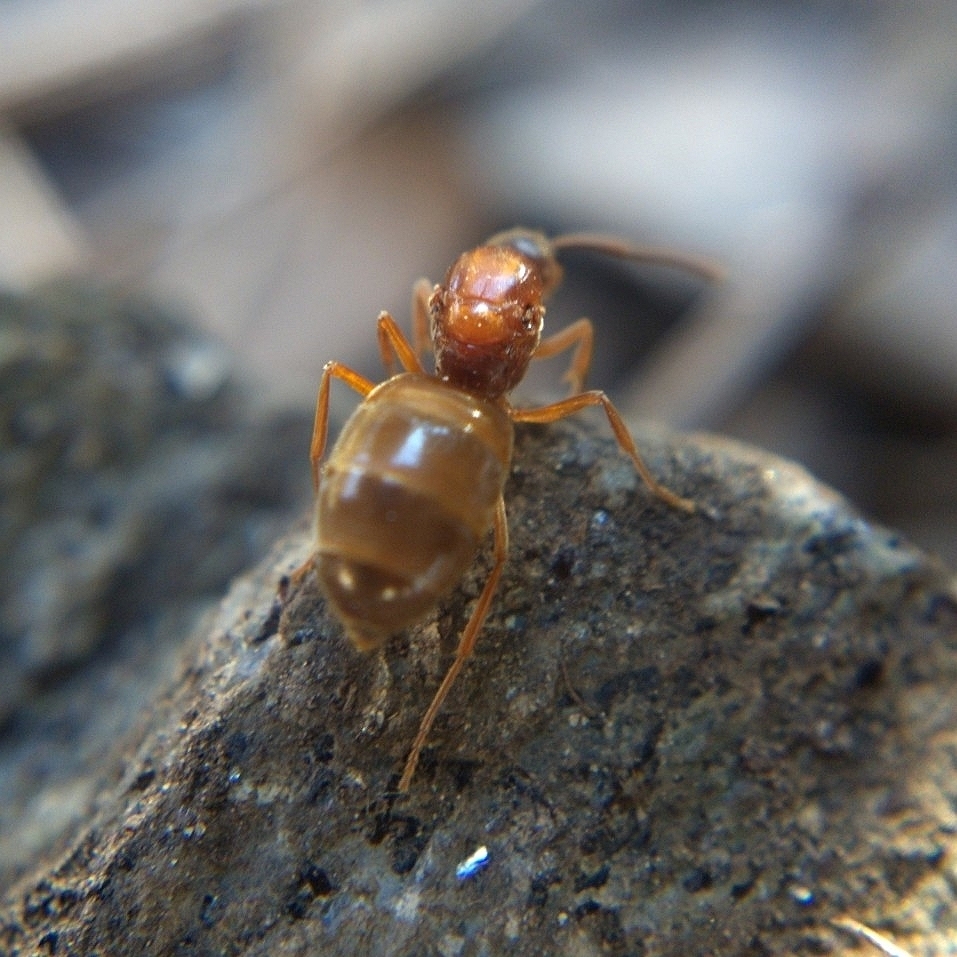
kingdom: Animalia
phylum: Arthropoda
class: Insecta
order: Hymenoptera
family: Formicidae
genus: Prenolepis
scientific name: Prenolepis imparis
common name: Small honey ant
